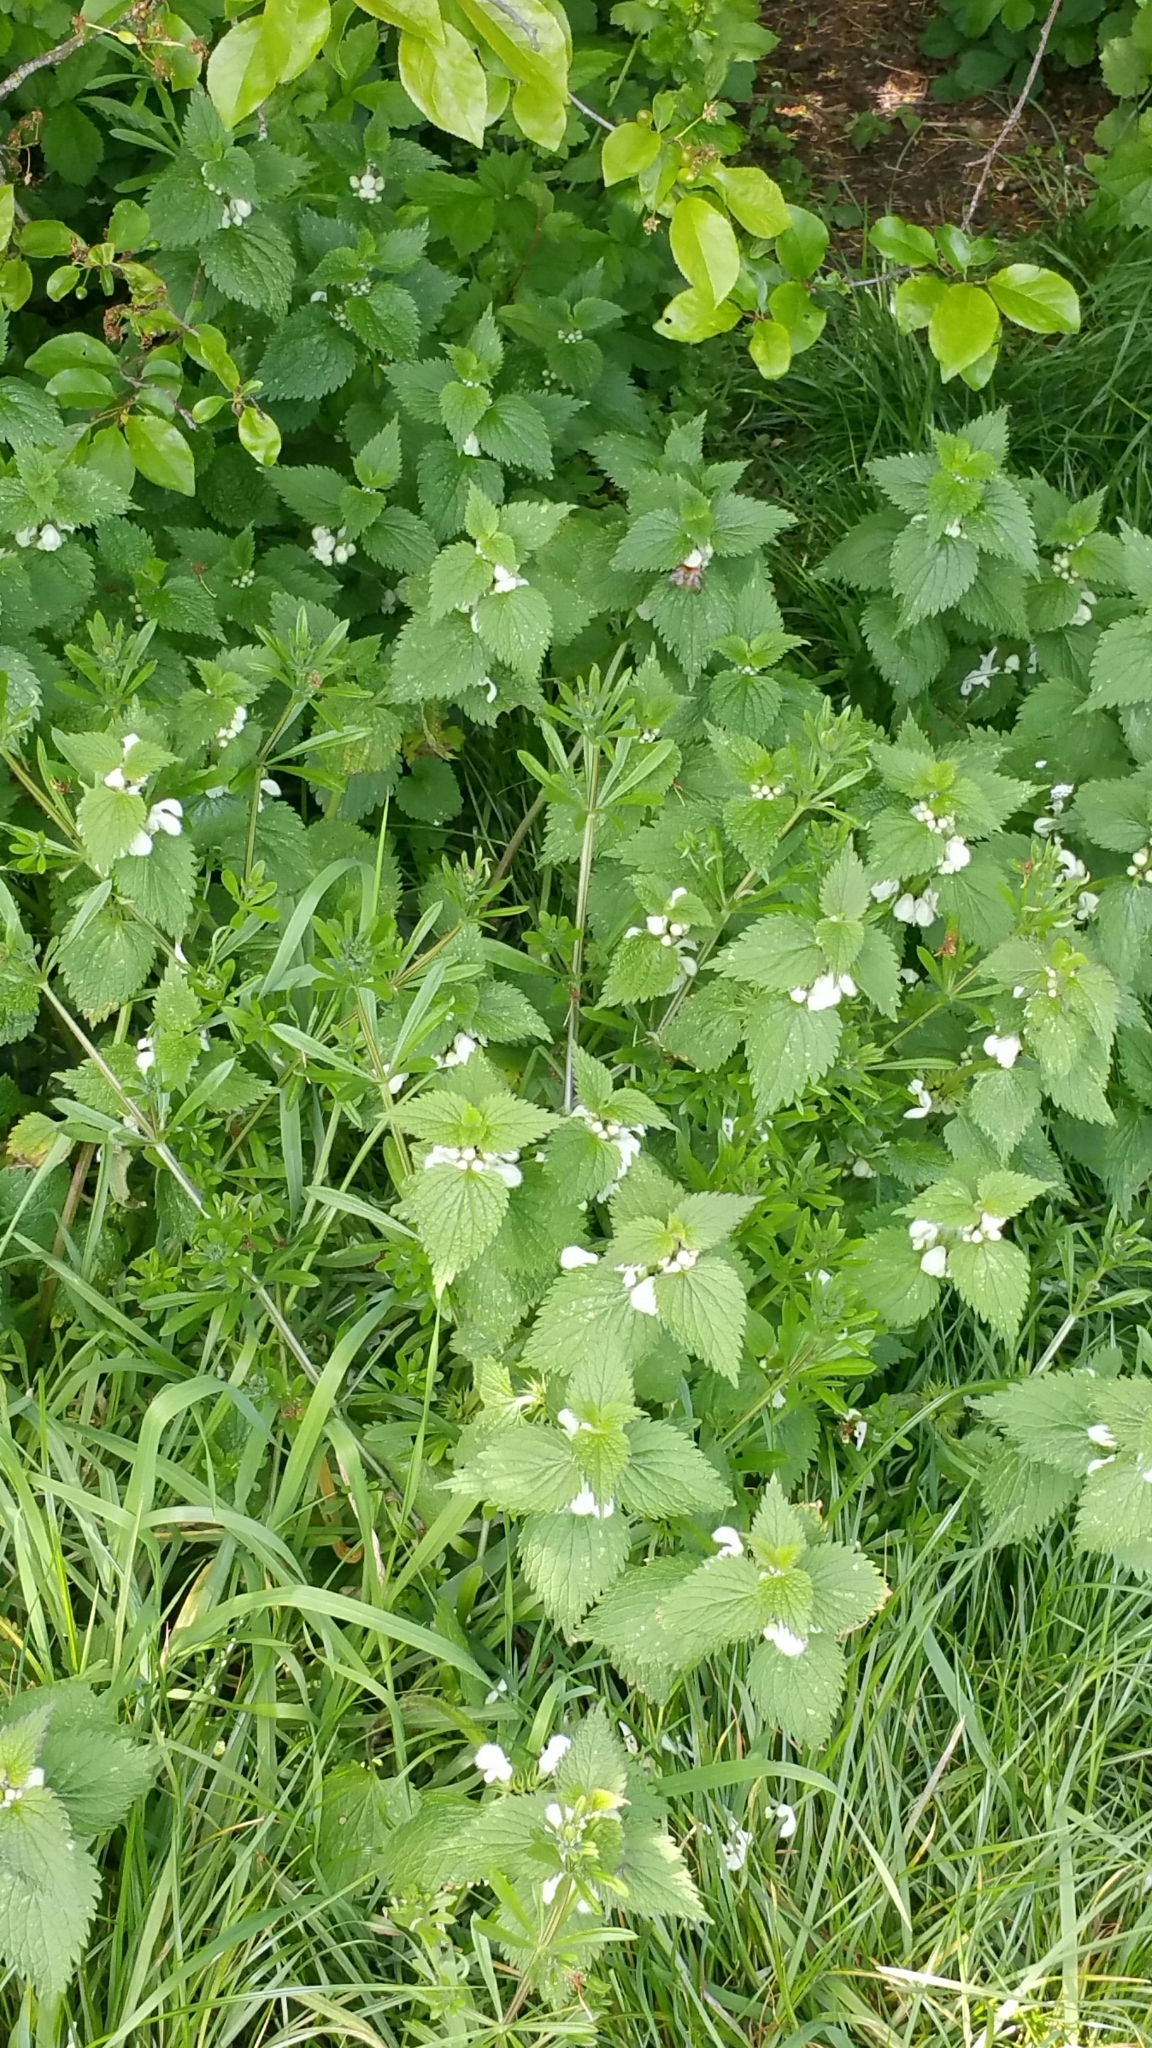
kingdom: Plantae
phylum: Tracheophyta
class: Magnoliopsida
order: Lamiales
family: Lamiaceae
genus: Lamium
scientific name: Lamium album
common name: White dead-nettle
